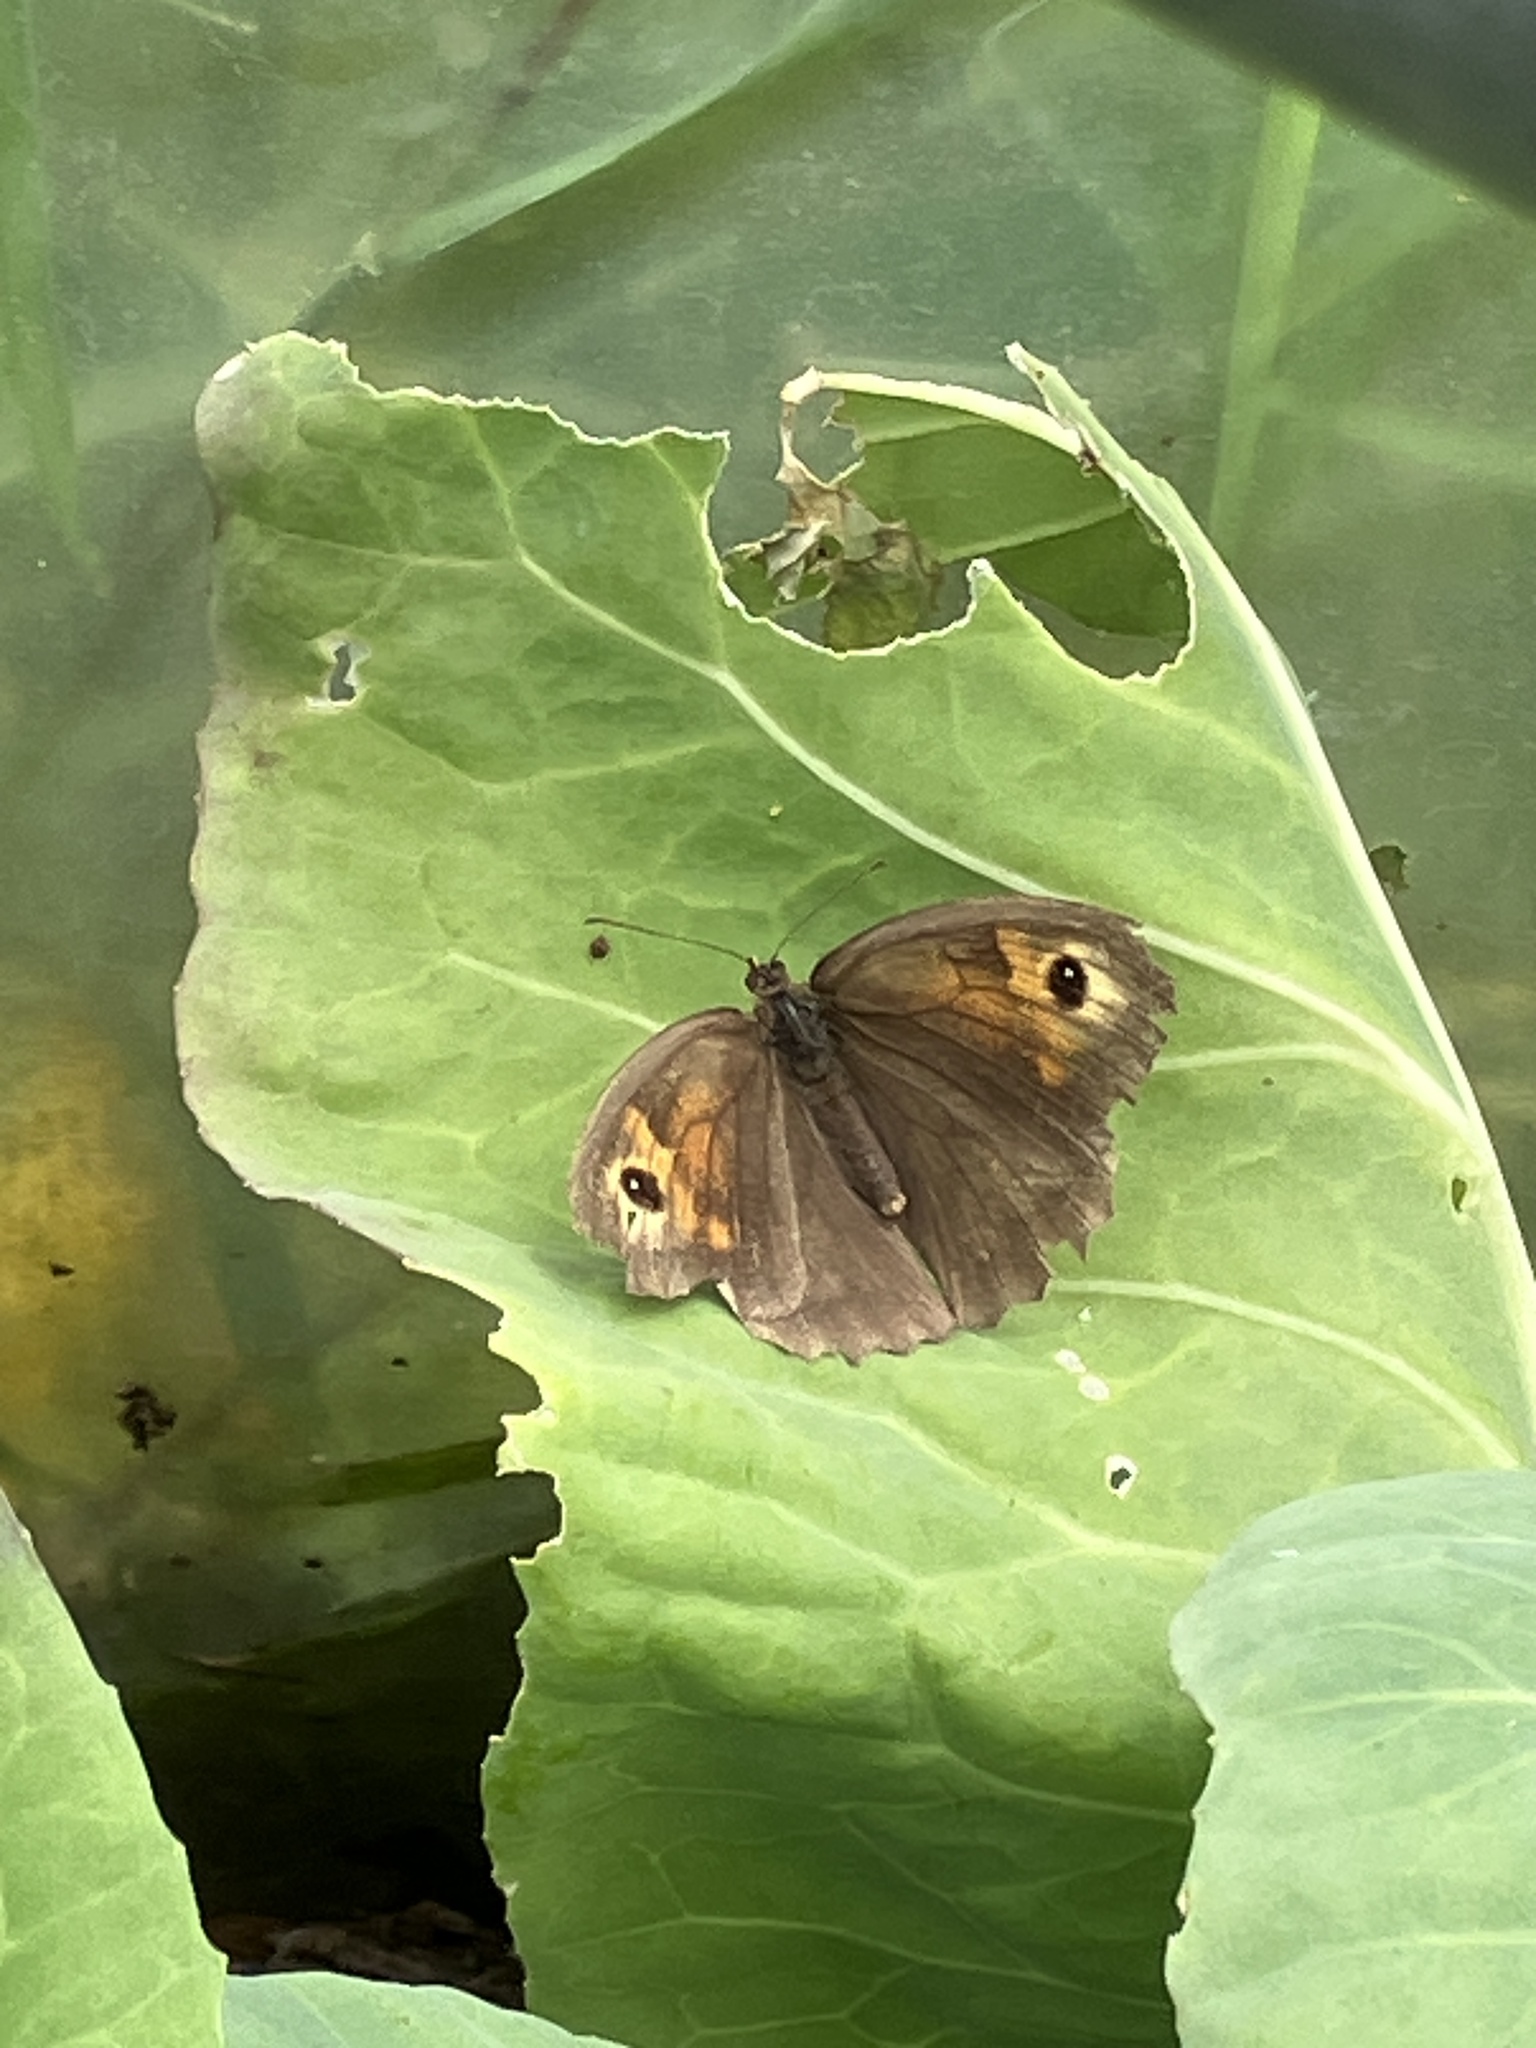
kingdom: Animalia
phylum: Arthropoda
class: Insecta
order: Lepidoptera
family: Nymphalidae
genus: Maniola
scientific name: Maniola jurtina
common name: Meadow brown
